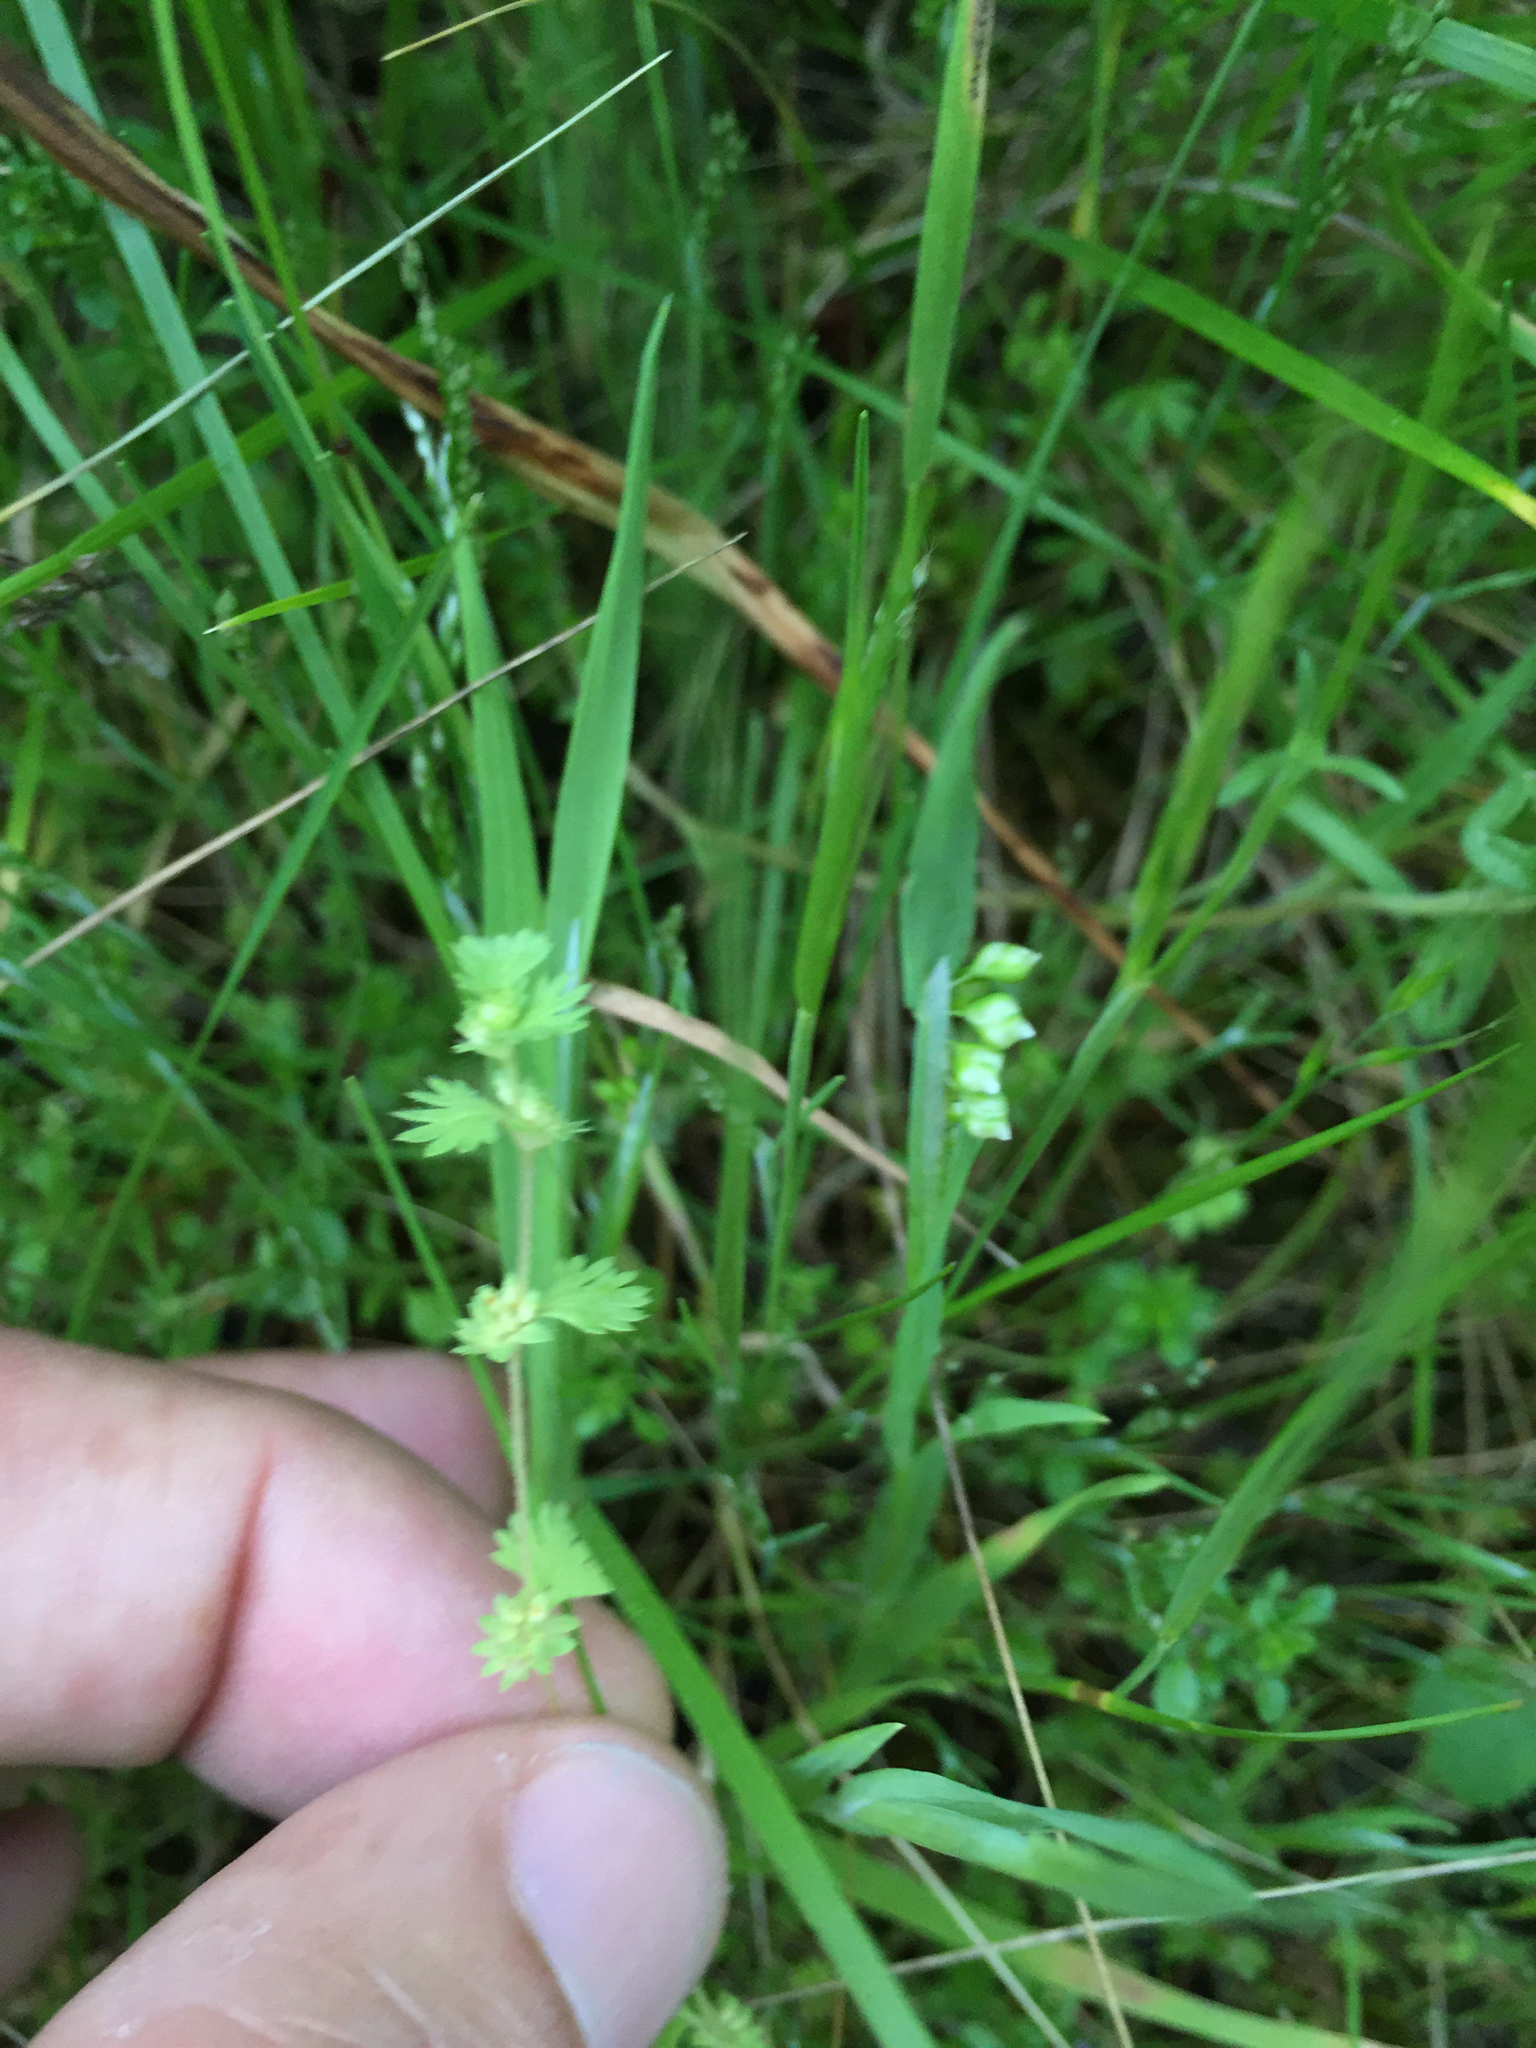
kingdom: Plantae
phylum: Tracheophyta
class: Magnoliopsida
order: Rosales
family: Rosaceae
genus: Aphanes
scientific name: Aphanes arvensis
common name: Parsley-piert
